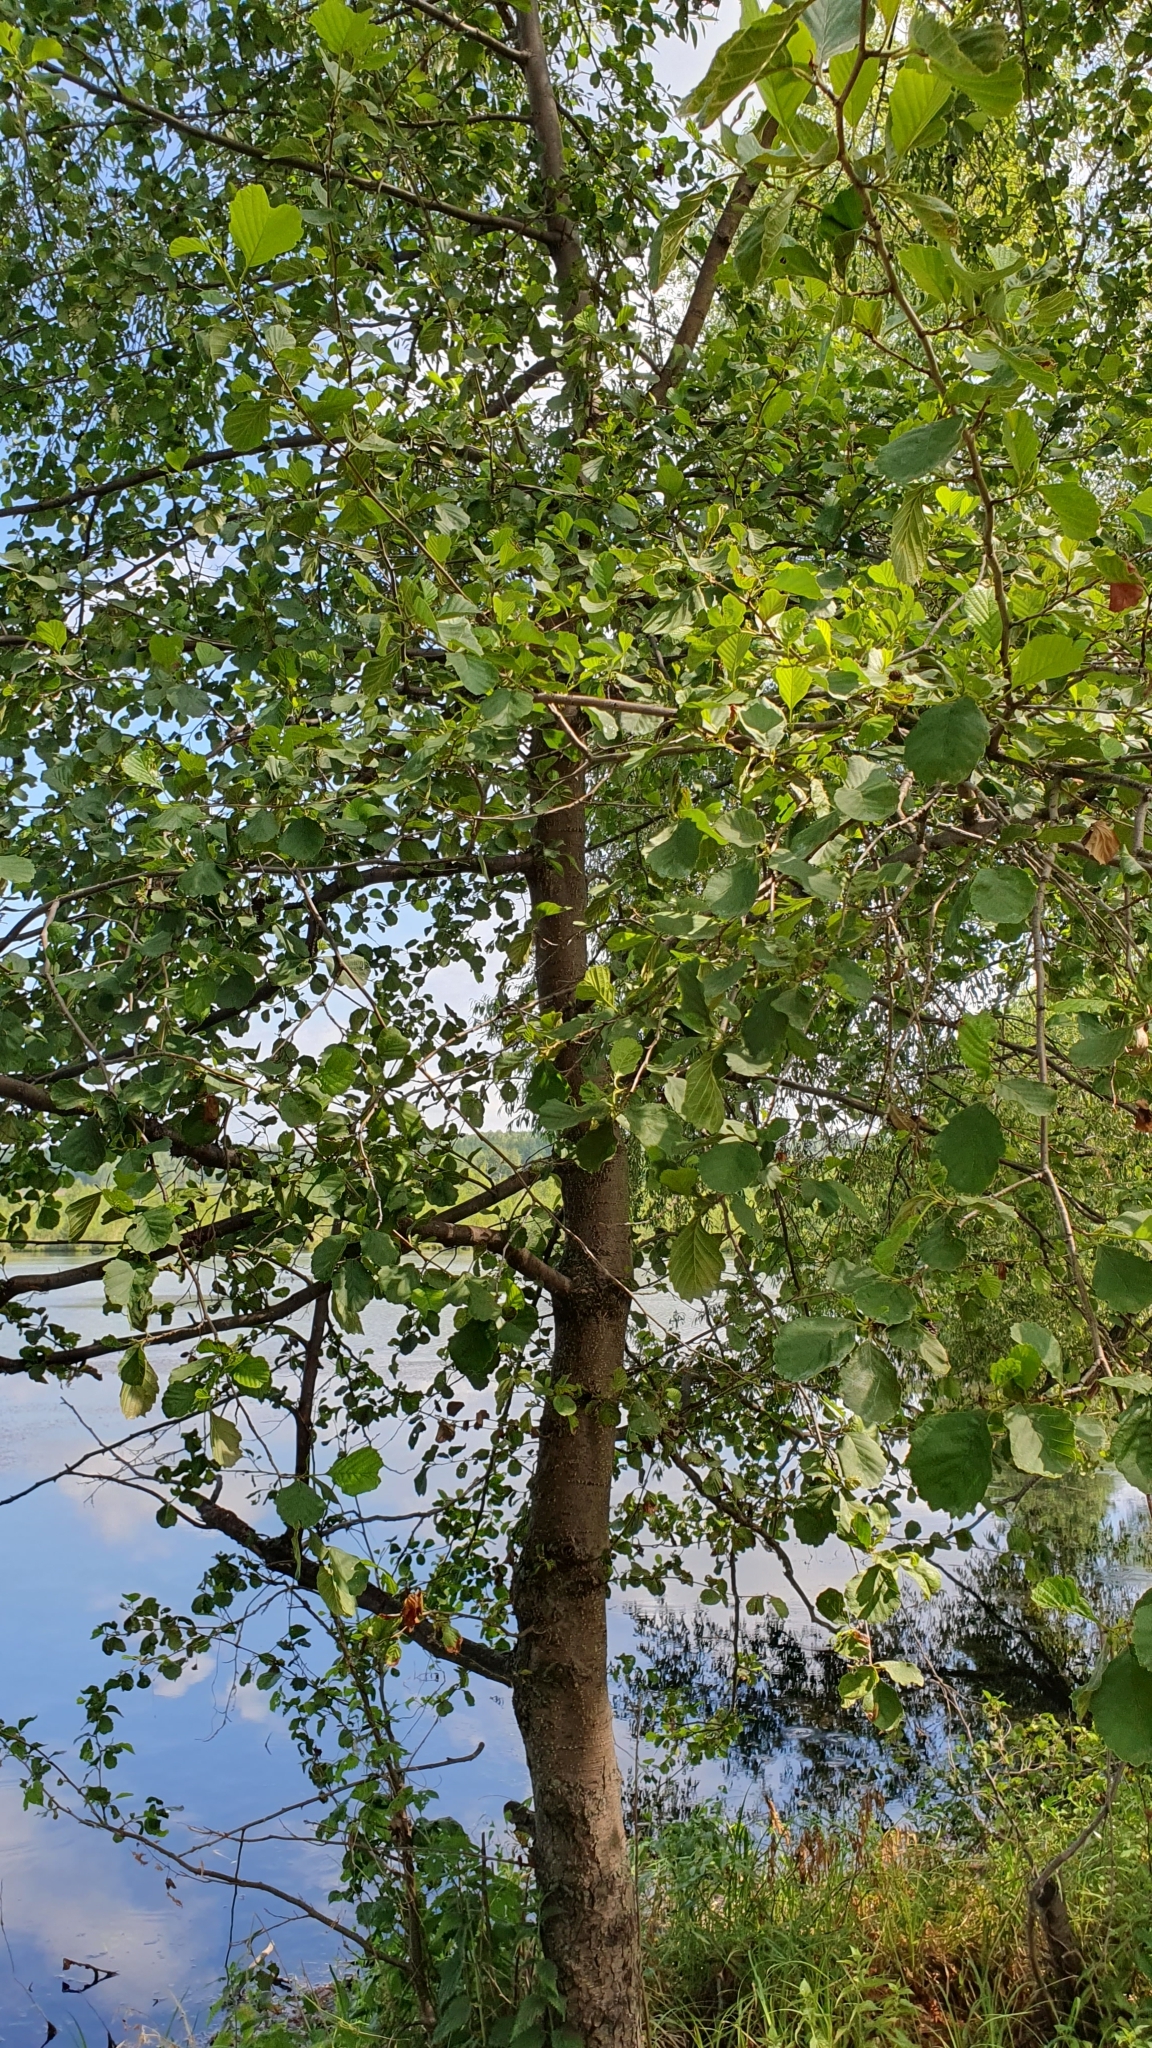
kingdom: Plantae
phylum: Tracheophyta
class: Magnoliopsida
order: Fagales
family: Betulaceae
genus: Alnus
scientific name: Alnus glutinosa
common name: Black alder
